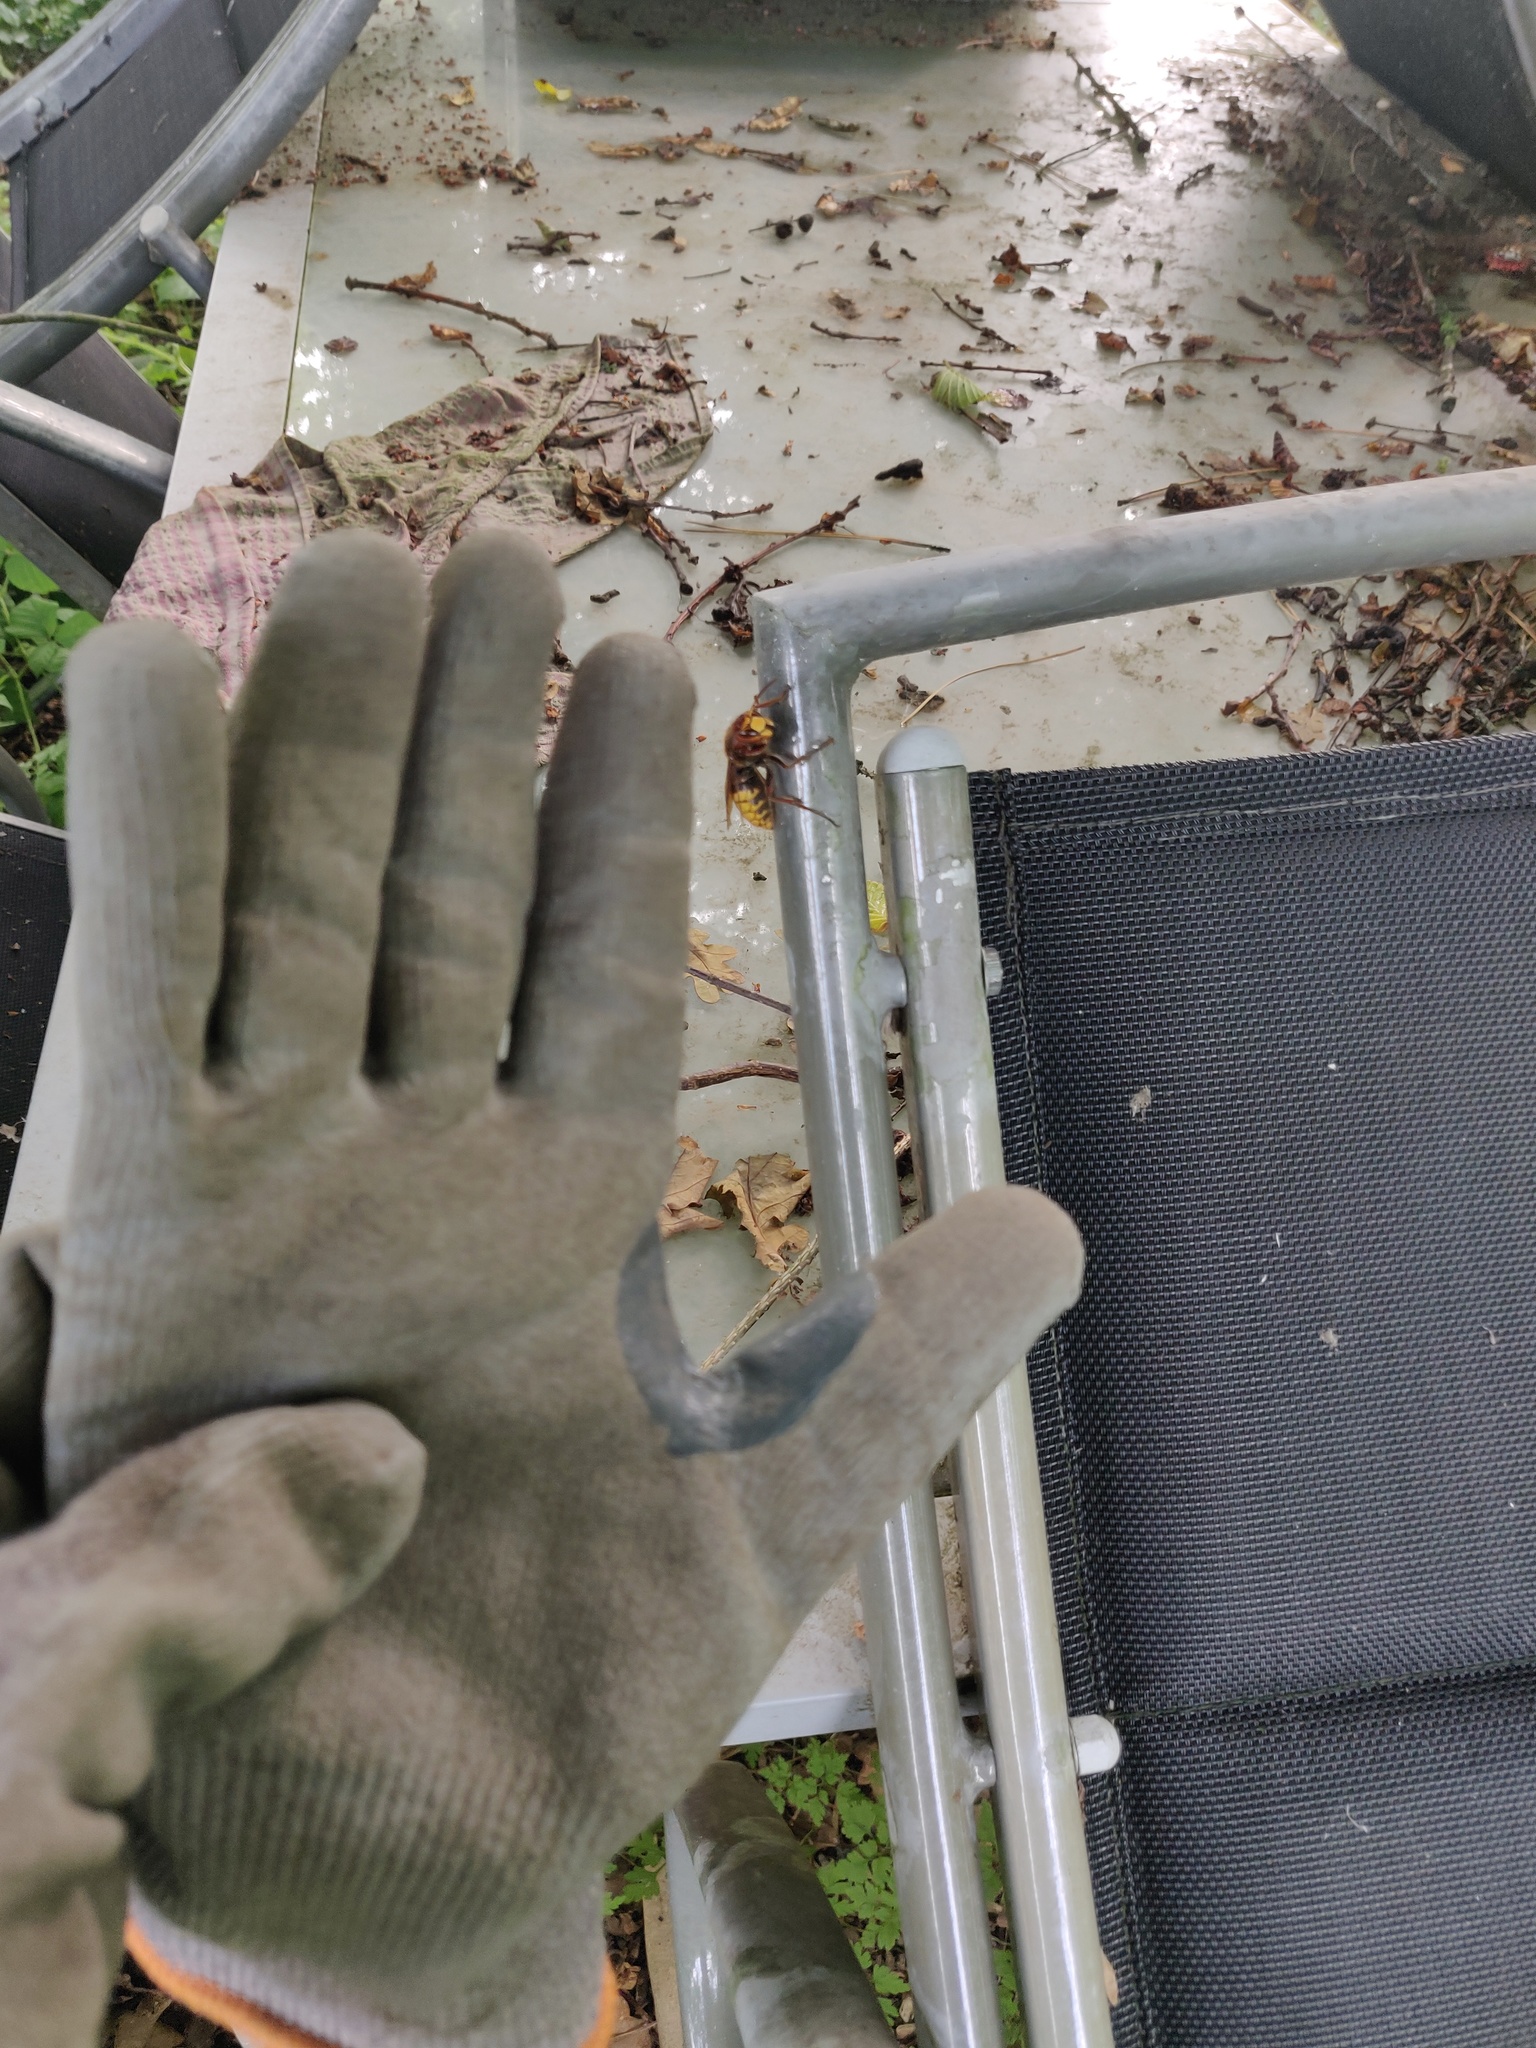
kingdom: Animalia
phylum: Arthropoda
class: Insecta
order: Hymenoptera
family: Vespidae
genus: Vespa
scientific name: Vespa crabro
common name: Hornet
